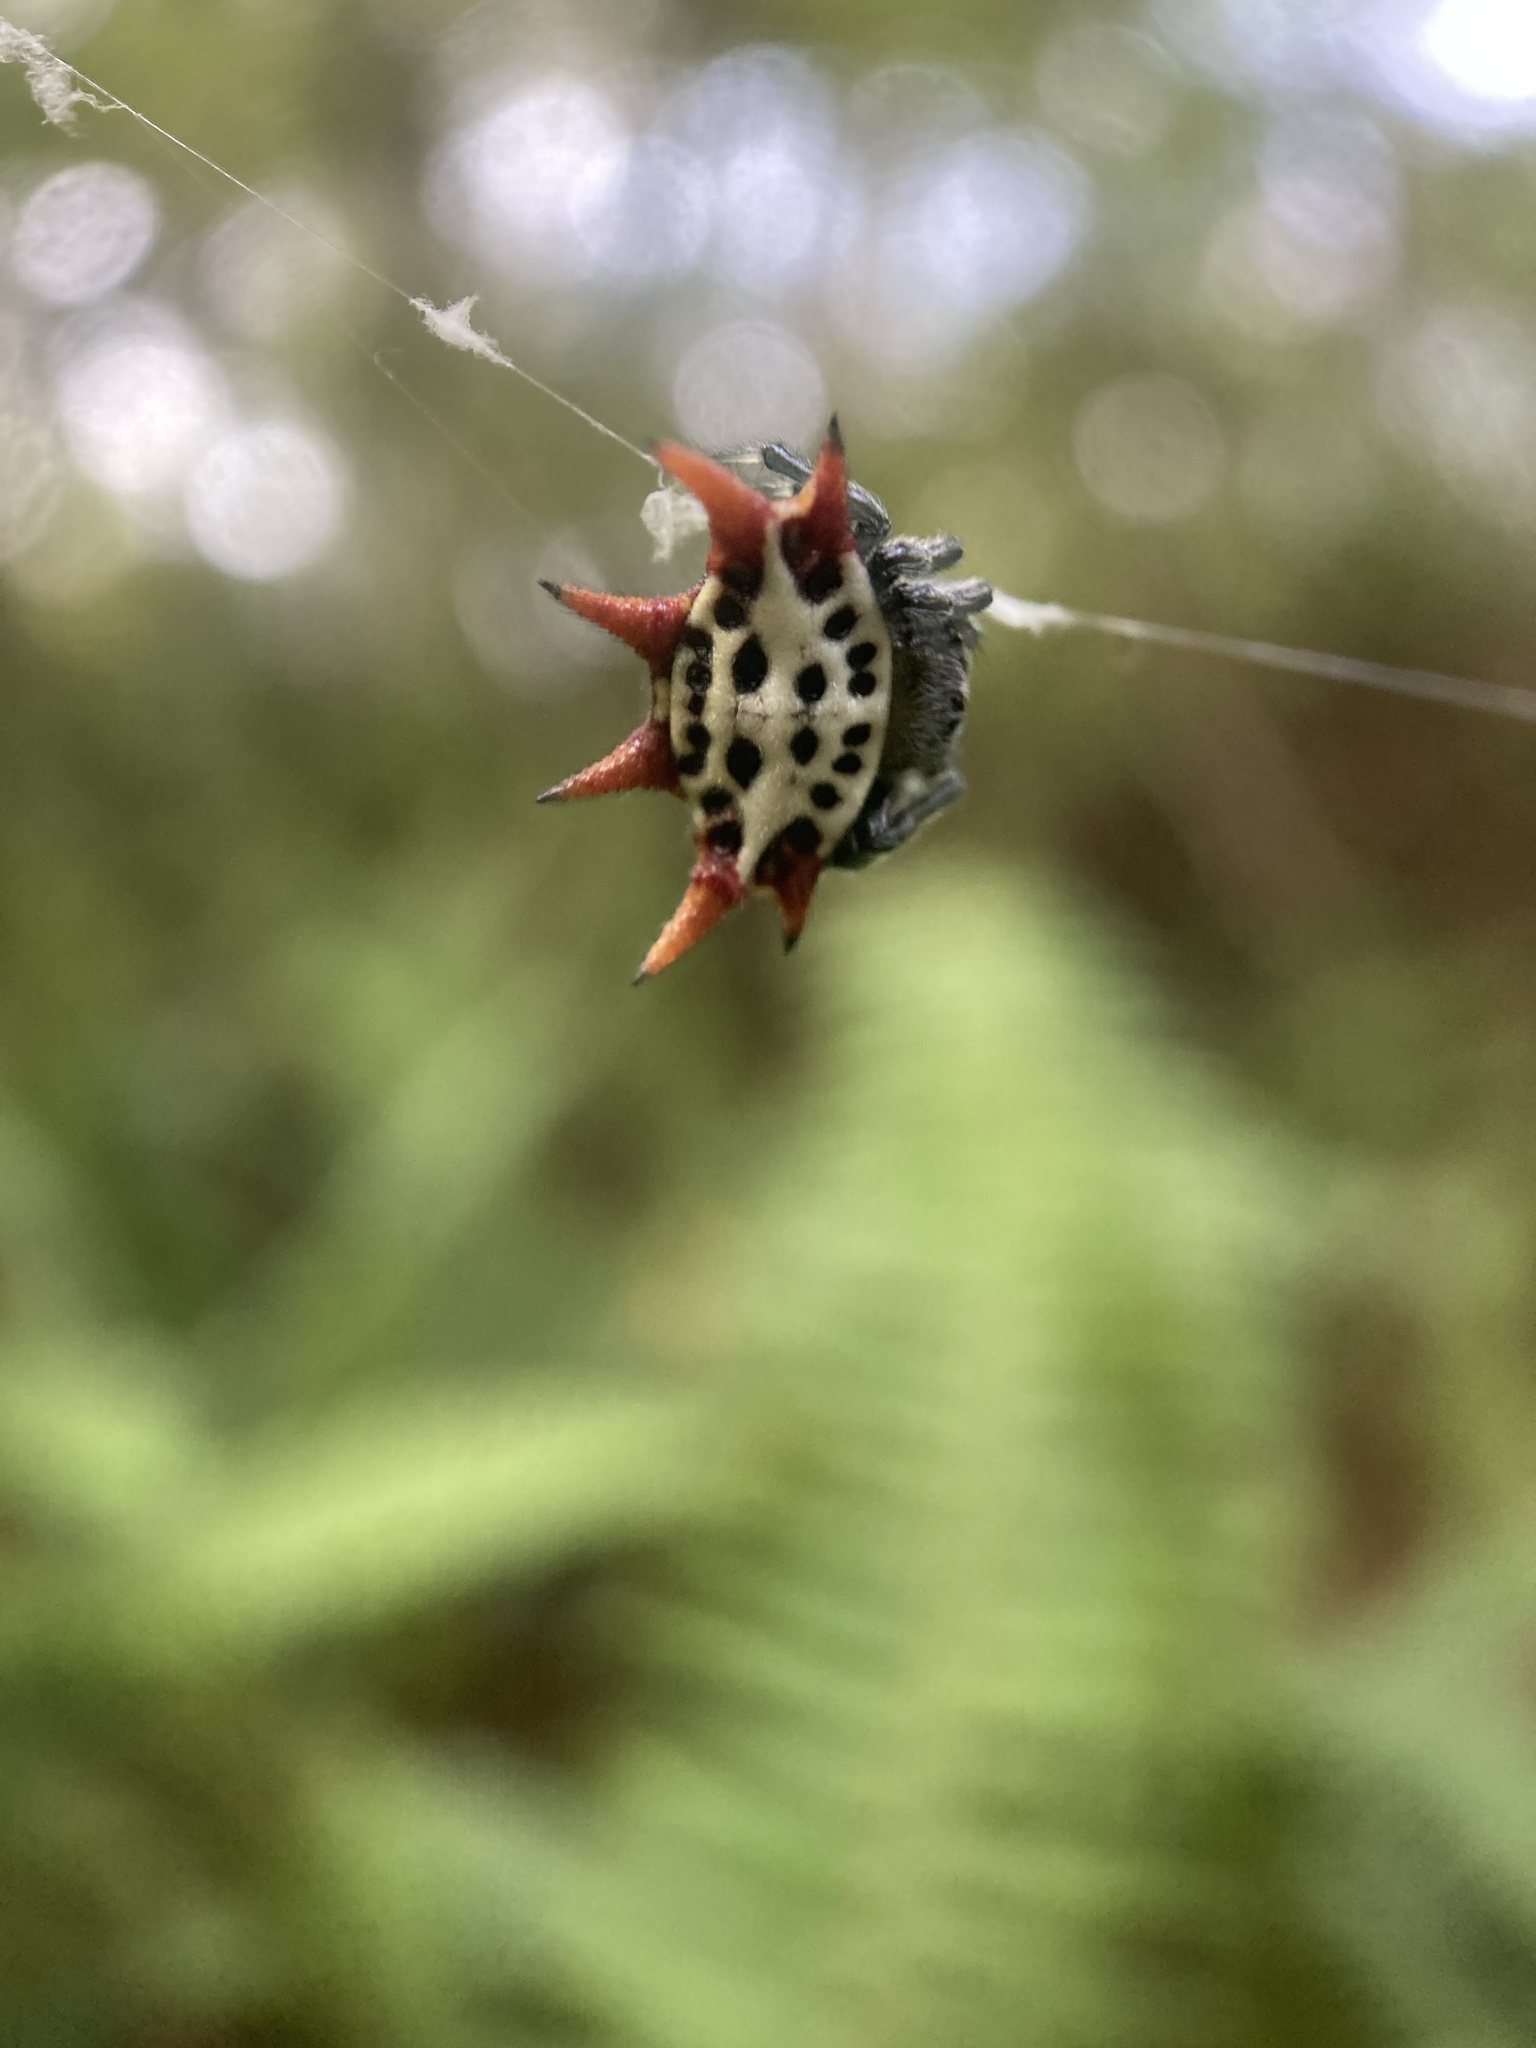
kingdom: Animalia
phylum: Arthropoda
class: Arachnida
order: Araneae
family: Araneidae
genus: Gasteracantha
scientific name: Gasteracantha cancriformis
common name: Orb weavers
